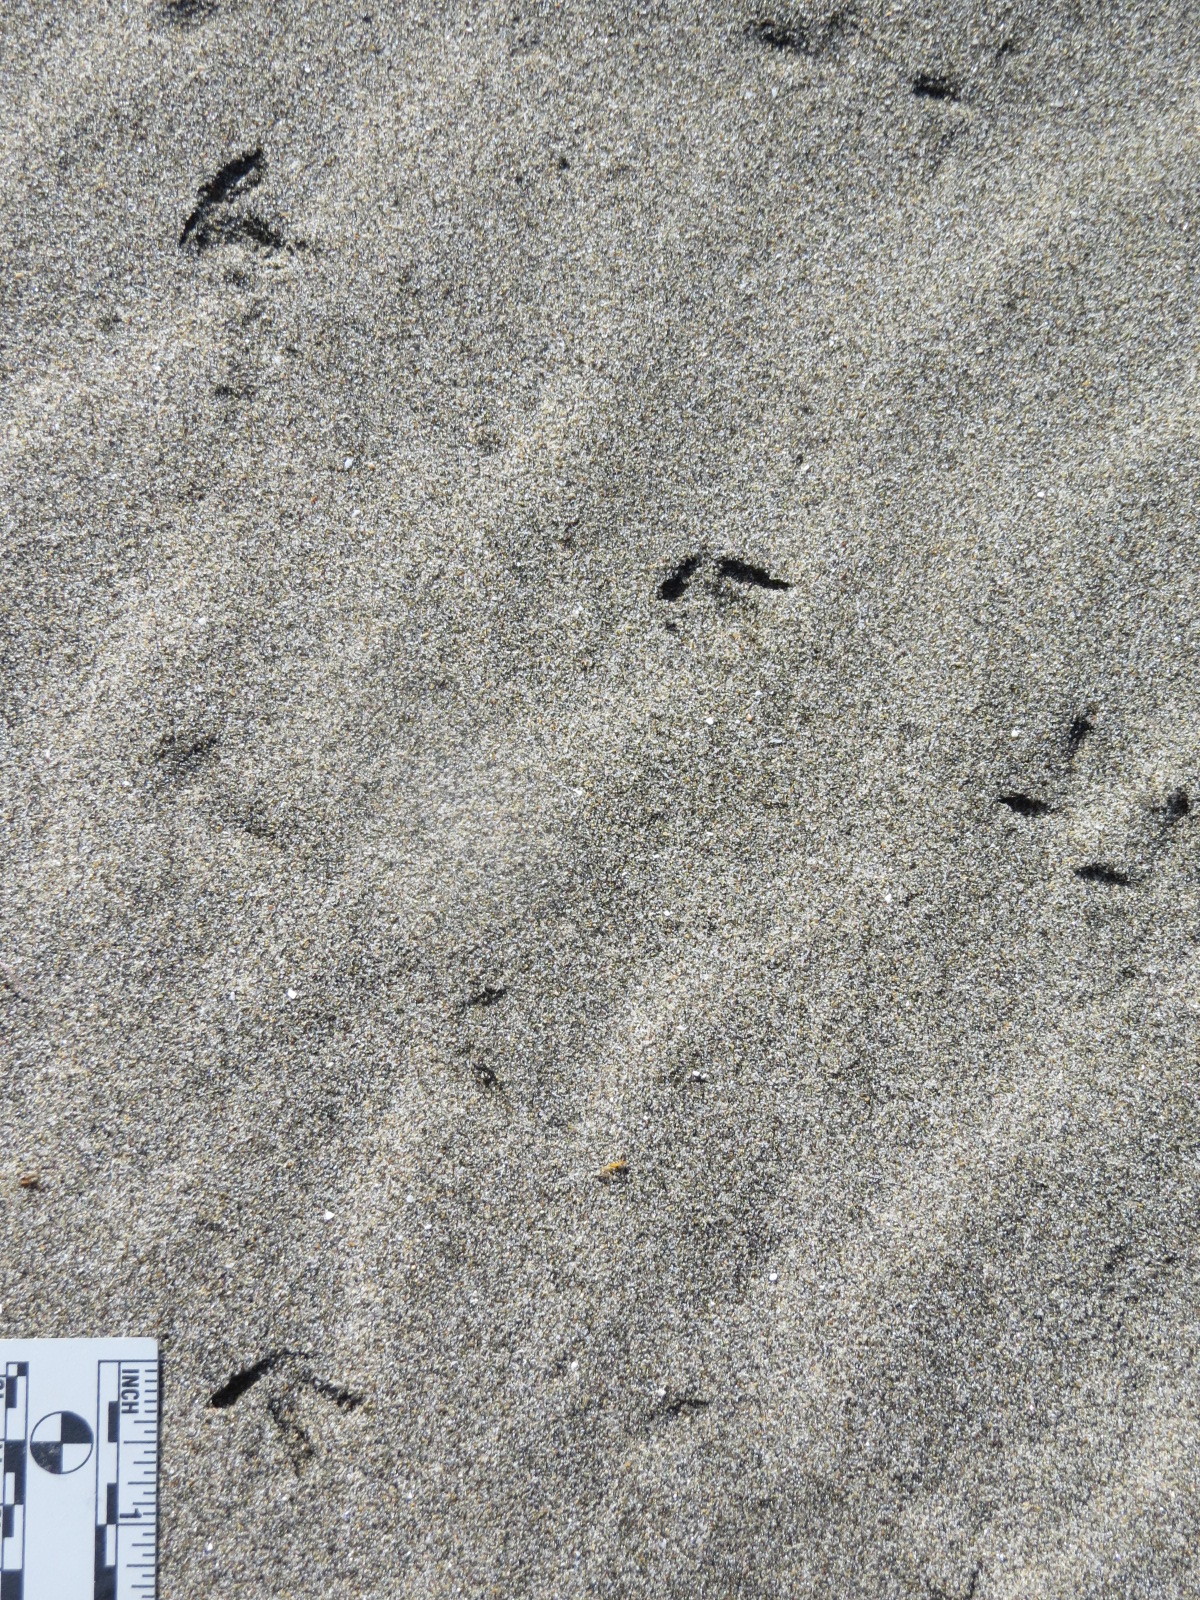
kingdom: Animalia
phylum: Chordata
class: Aves
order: Charadriiformes
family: Charadriidae
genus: Anarhynchus
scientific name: Anarhynchus
